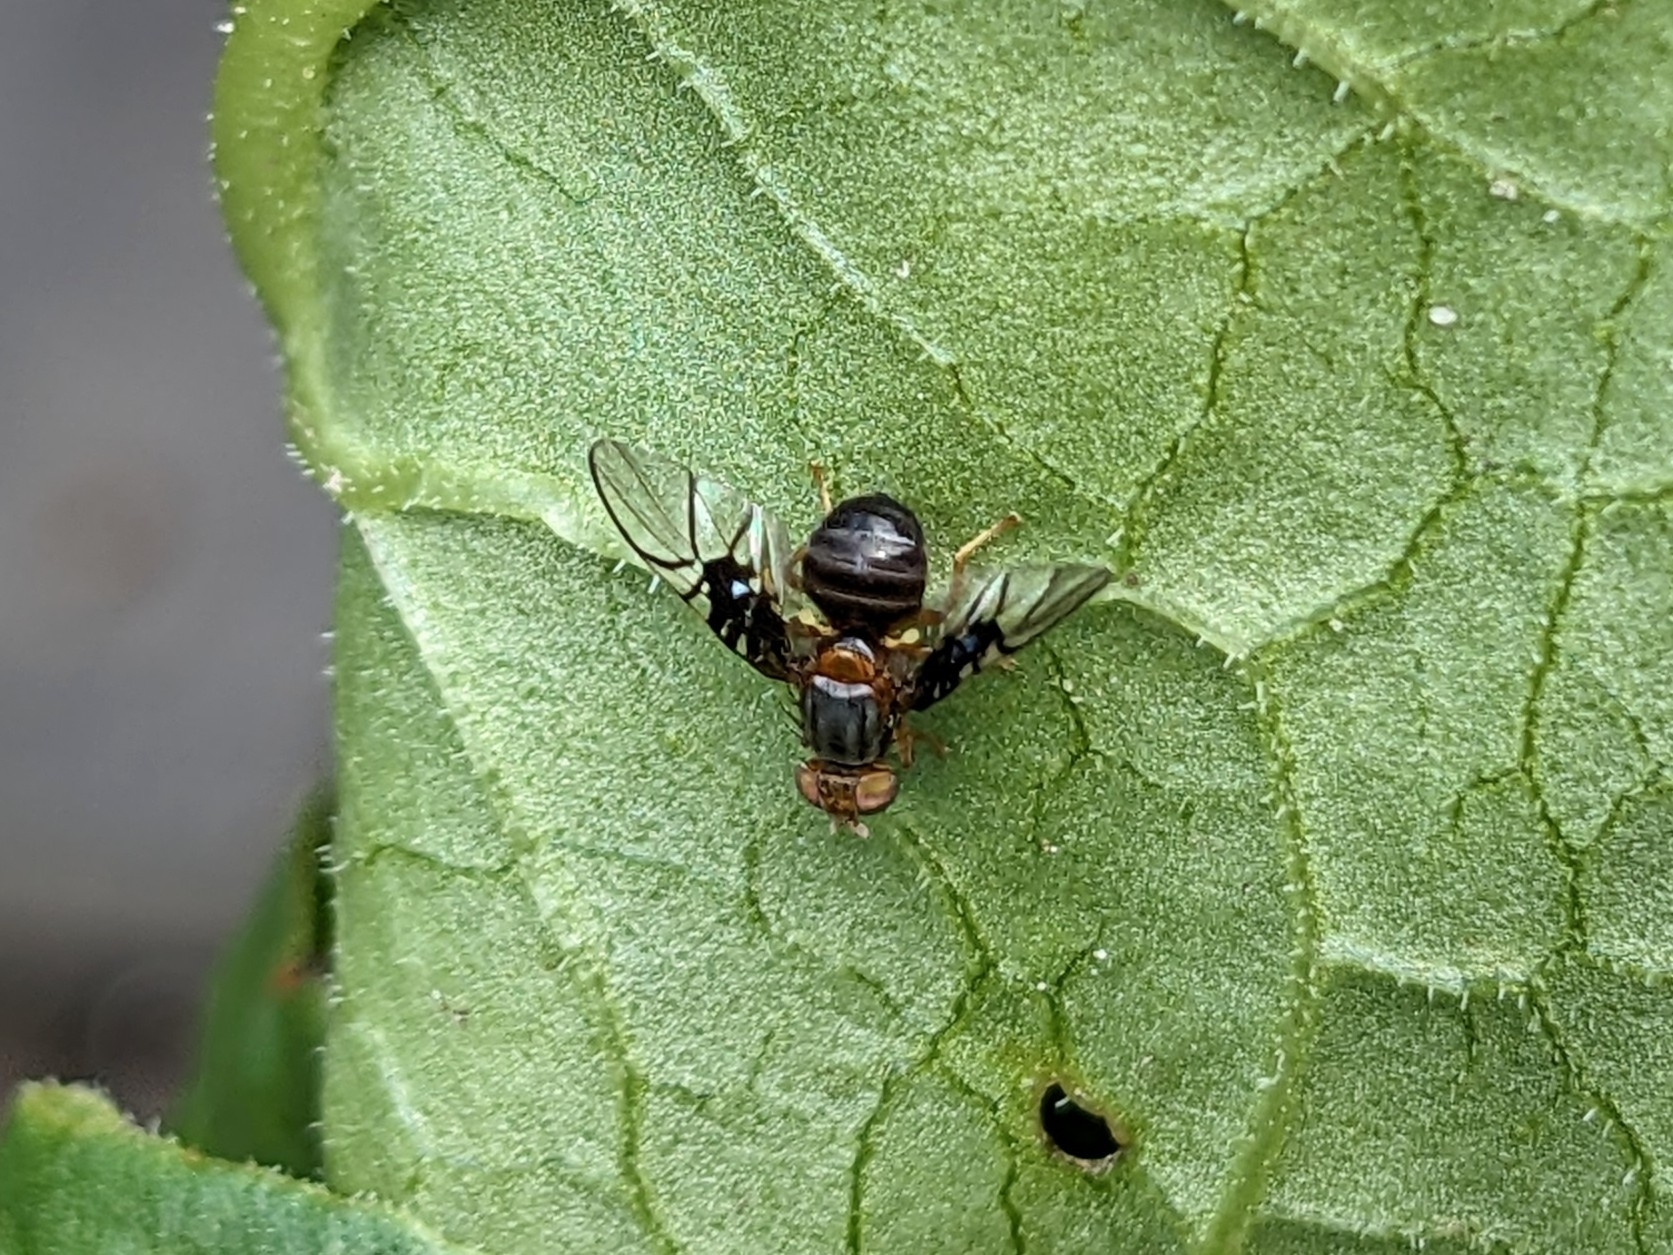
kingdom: Animalia
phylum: Arthropoda
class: Insecta
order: Diptera
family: Tephritidae
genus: Anomoia
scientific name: Anomoia purmunda
